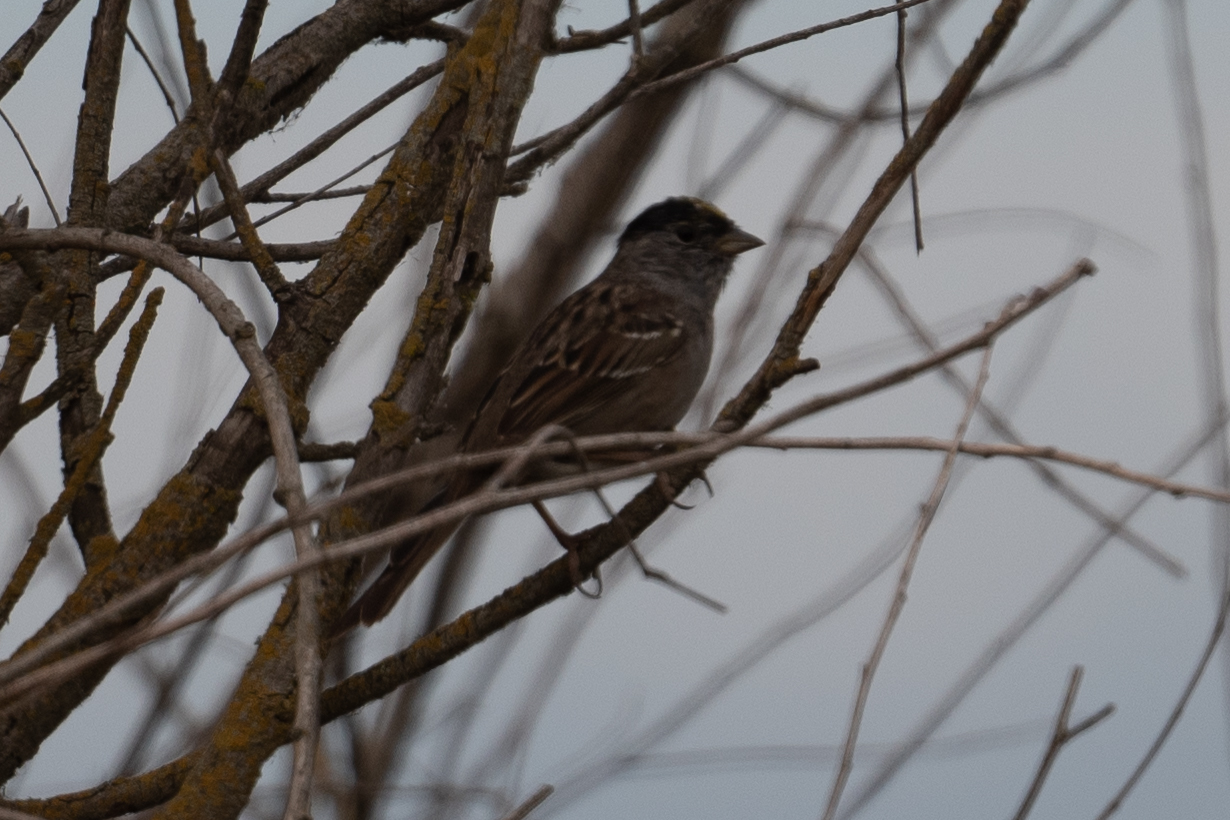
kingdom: Animalia
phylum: Chordata
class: Aves
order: Passeriformes
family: Passerellidae
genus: Zonotrichia
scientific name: Zonotrichia atricapilla
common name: Golden-crowned sparrow
